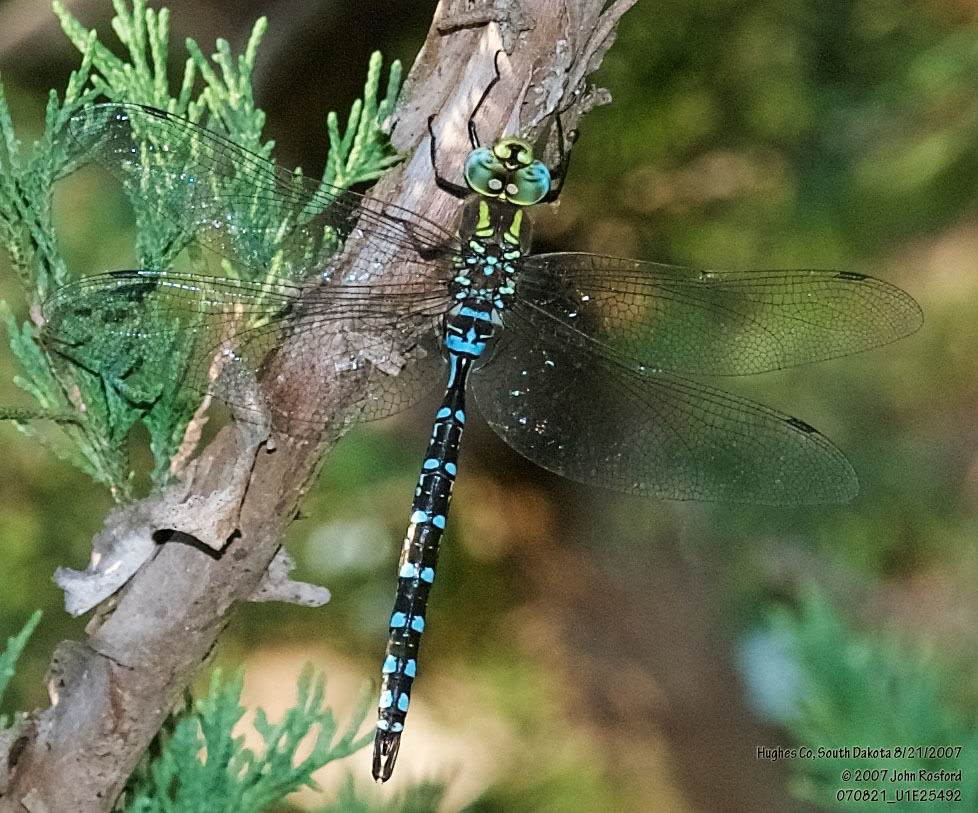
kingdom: Animalia
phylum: Arthropoda
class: Insecta
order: Odonata
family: Aeshnidae
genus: Aeshna
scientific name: Aeshna constricta
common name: Lance-tipped darner
